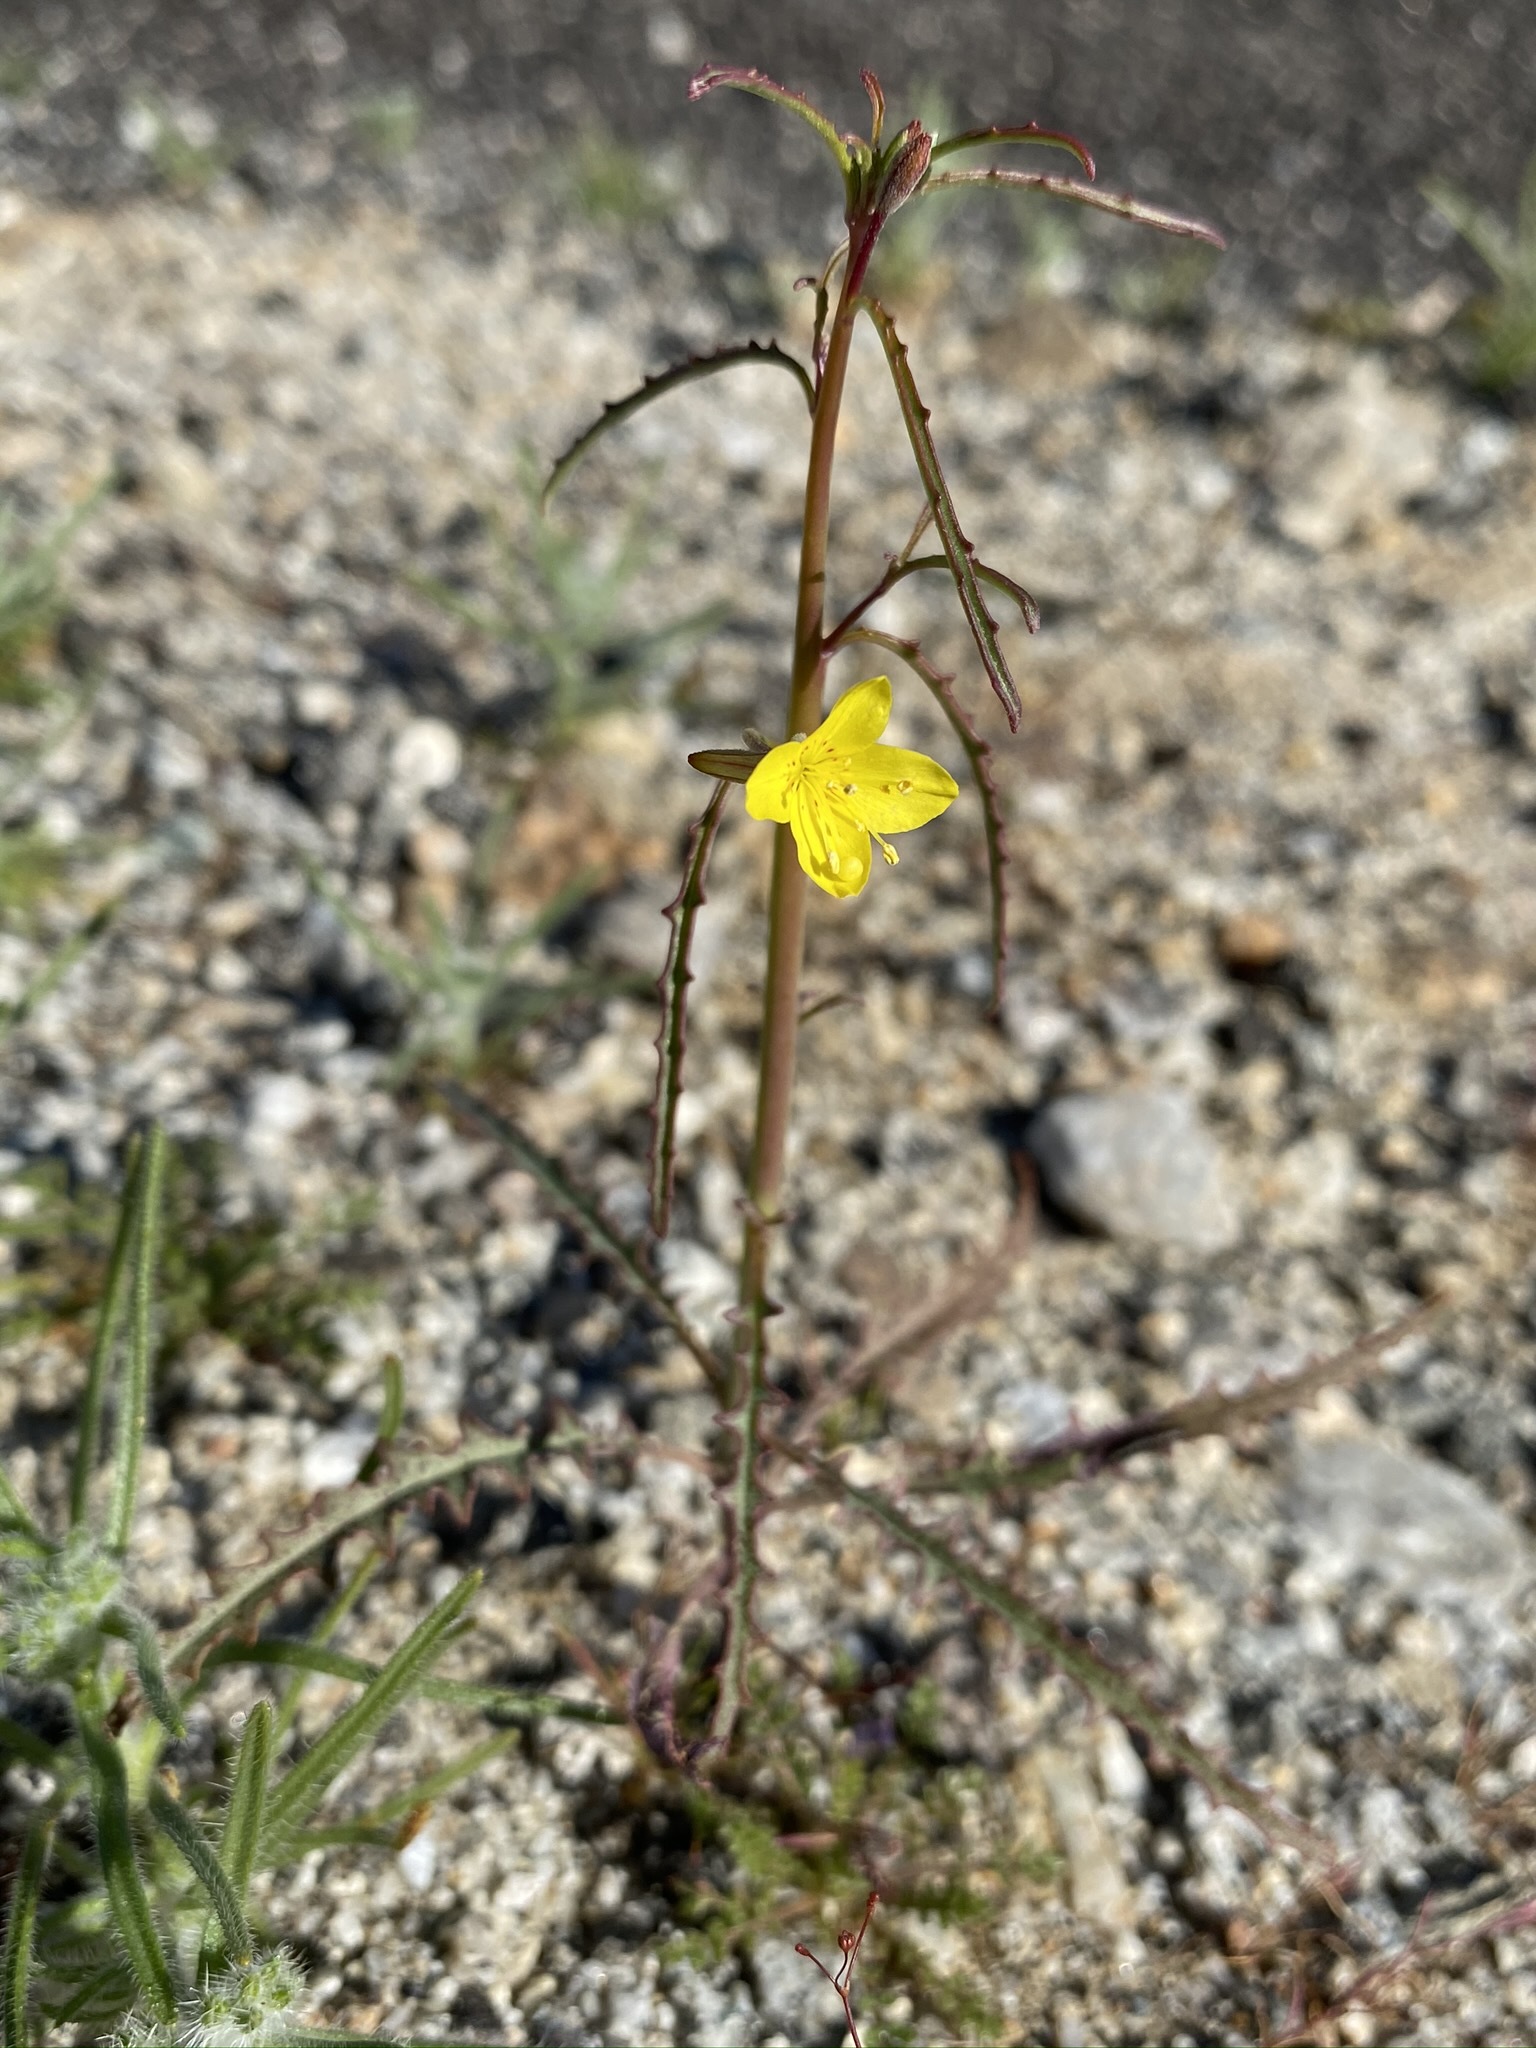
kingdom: Plantae
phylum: Tracheophyta
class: Magnoliopsida
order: Myrtales
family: Onagraceae
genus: Eulobus
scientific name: Eulobus californicus
